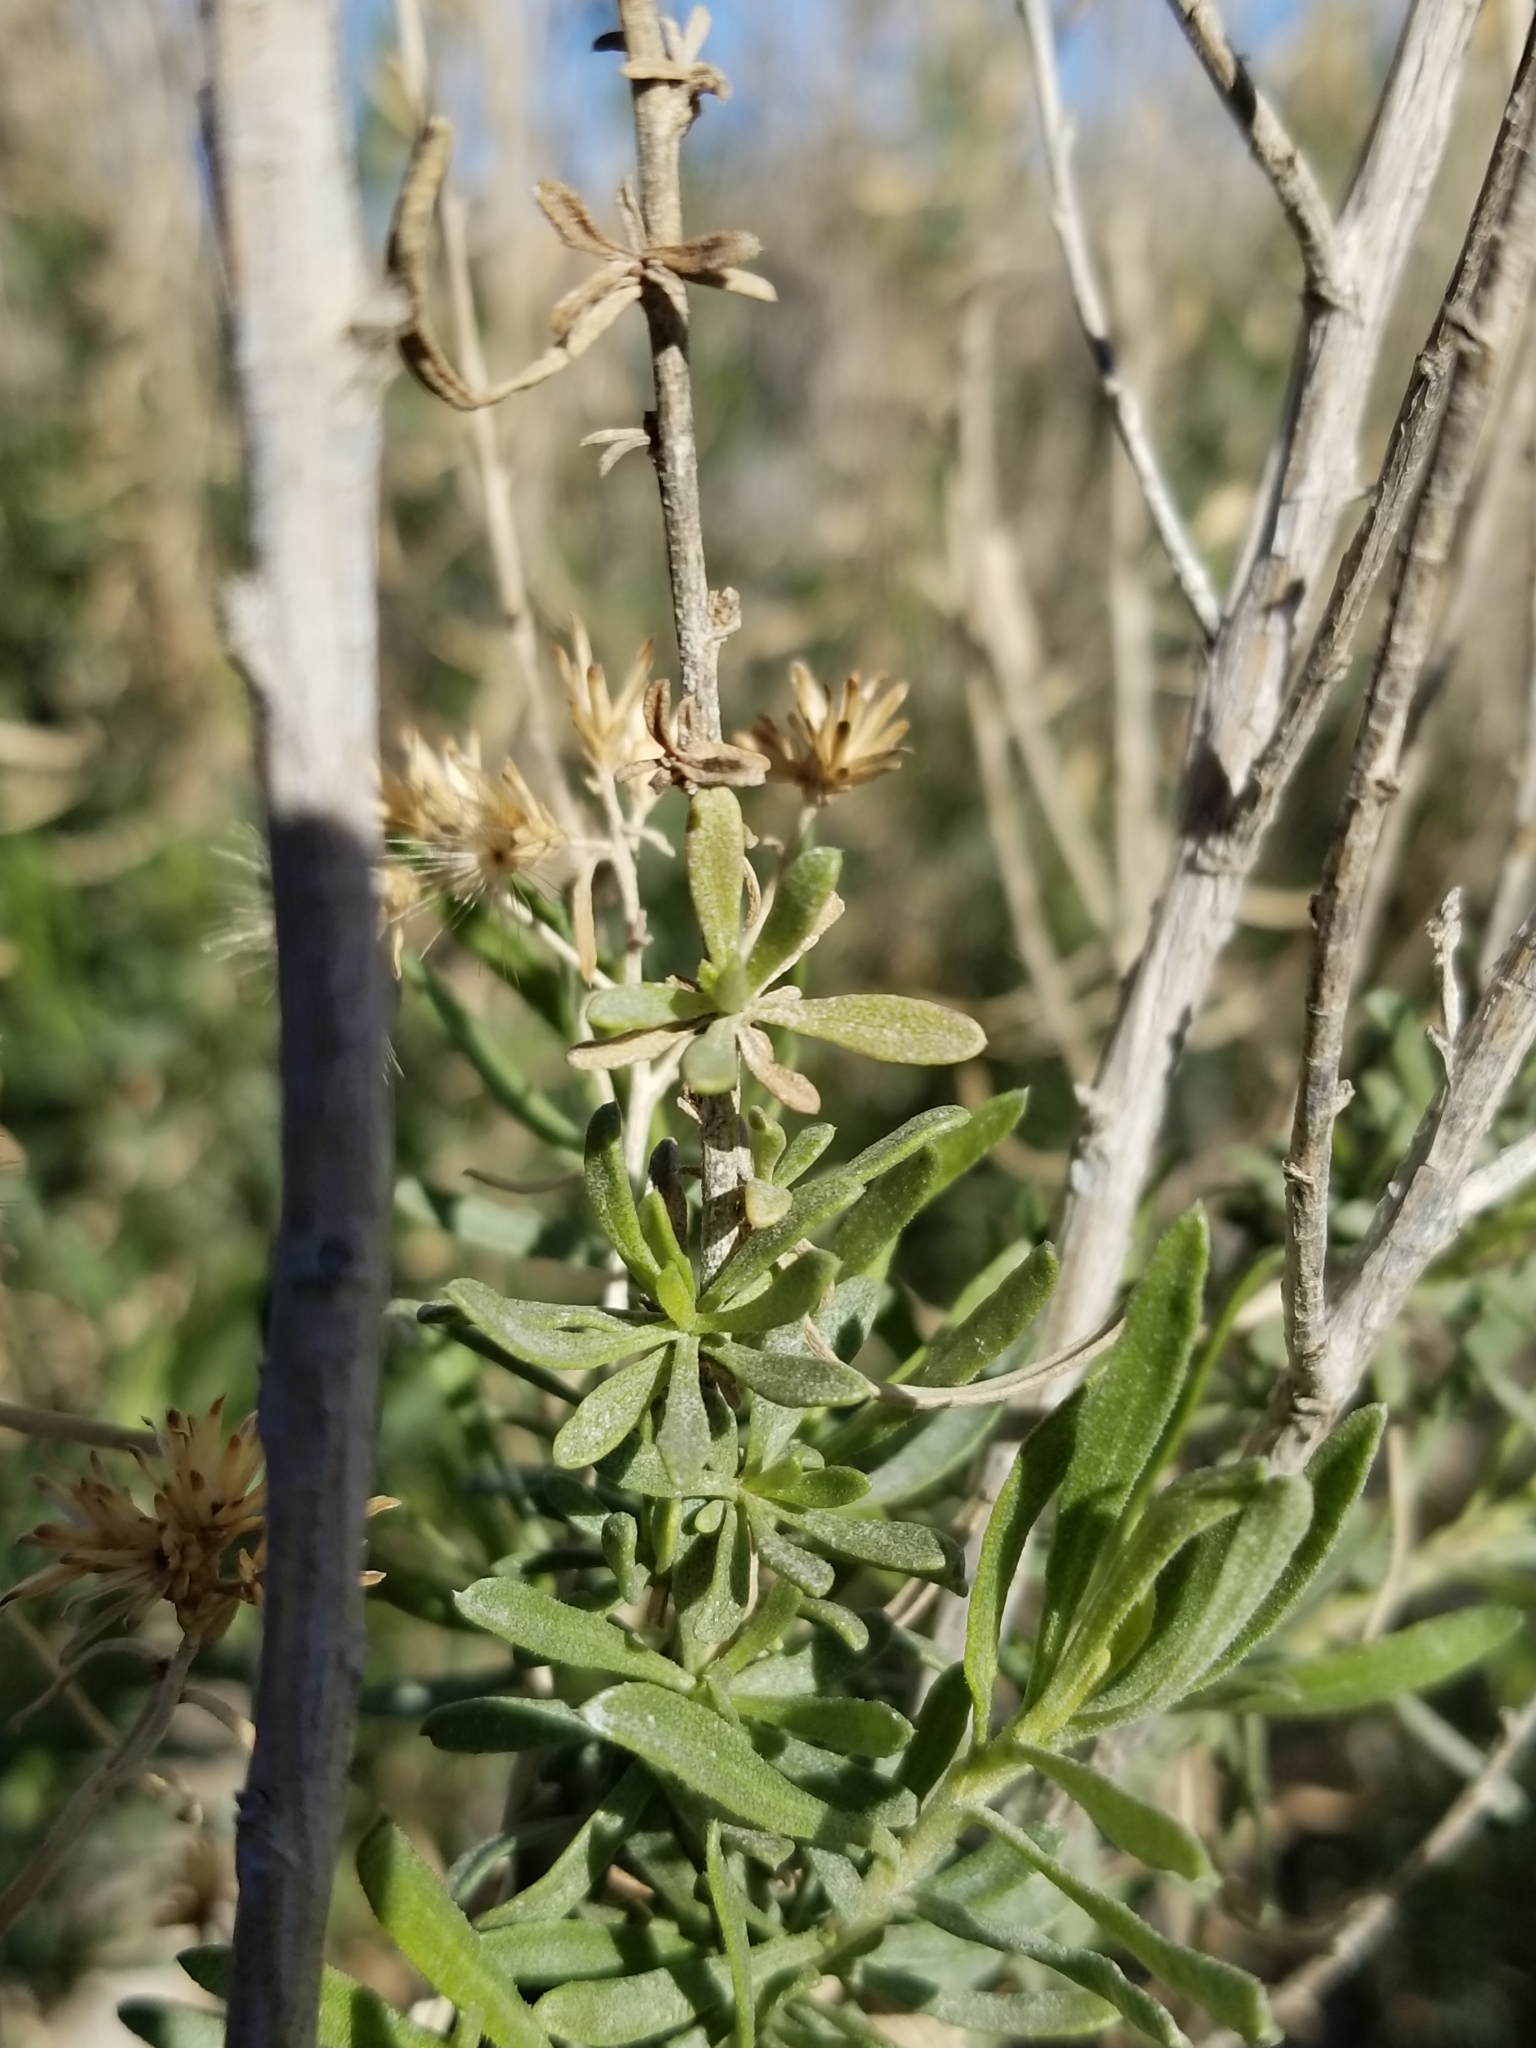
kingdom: Plantae
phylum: Tracheophyta
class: Magnoliopsida
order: Asterales
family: Asteraceae
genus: Isocoma
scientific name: Isocoma acradenia
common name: Alkali jimmyweed
